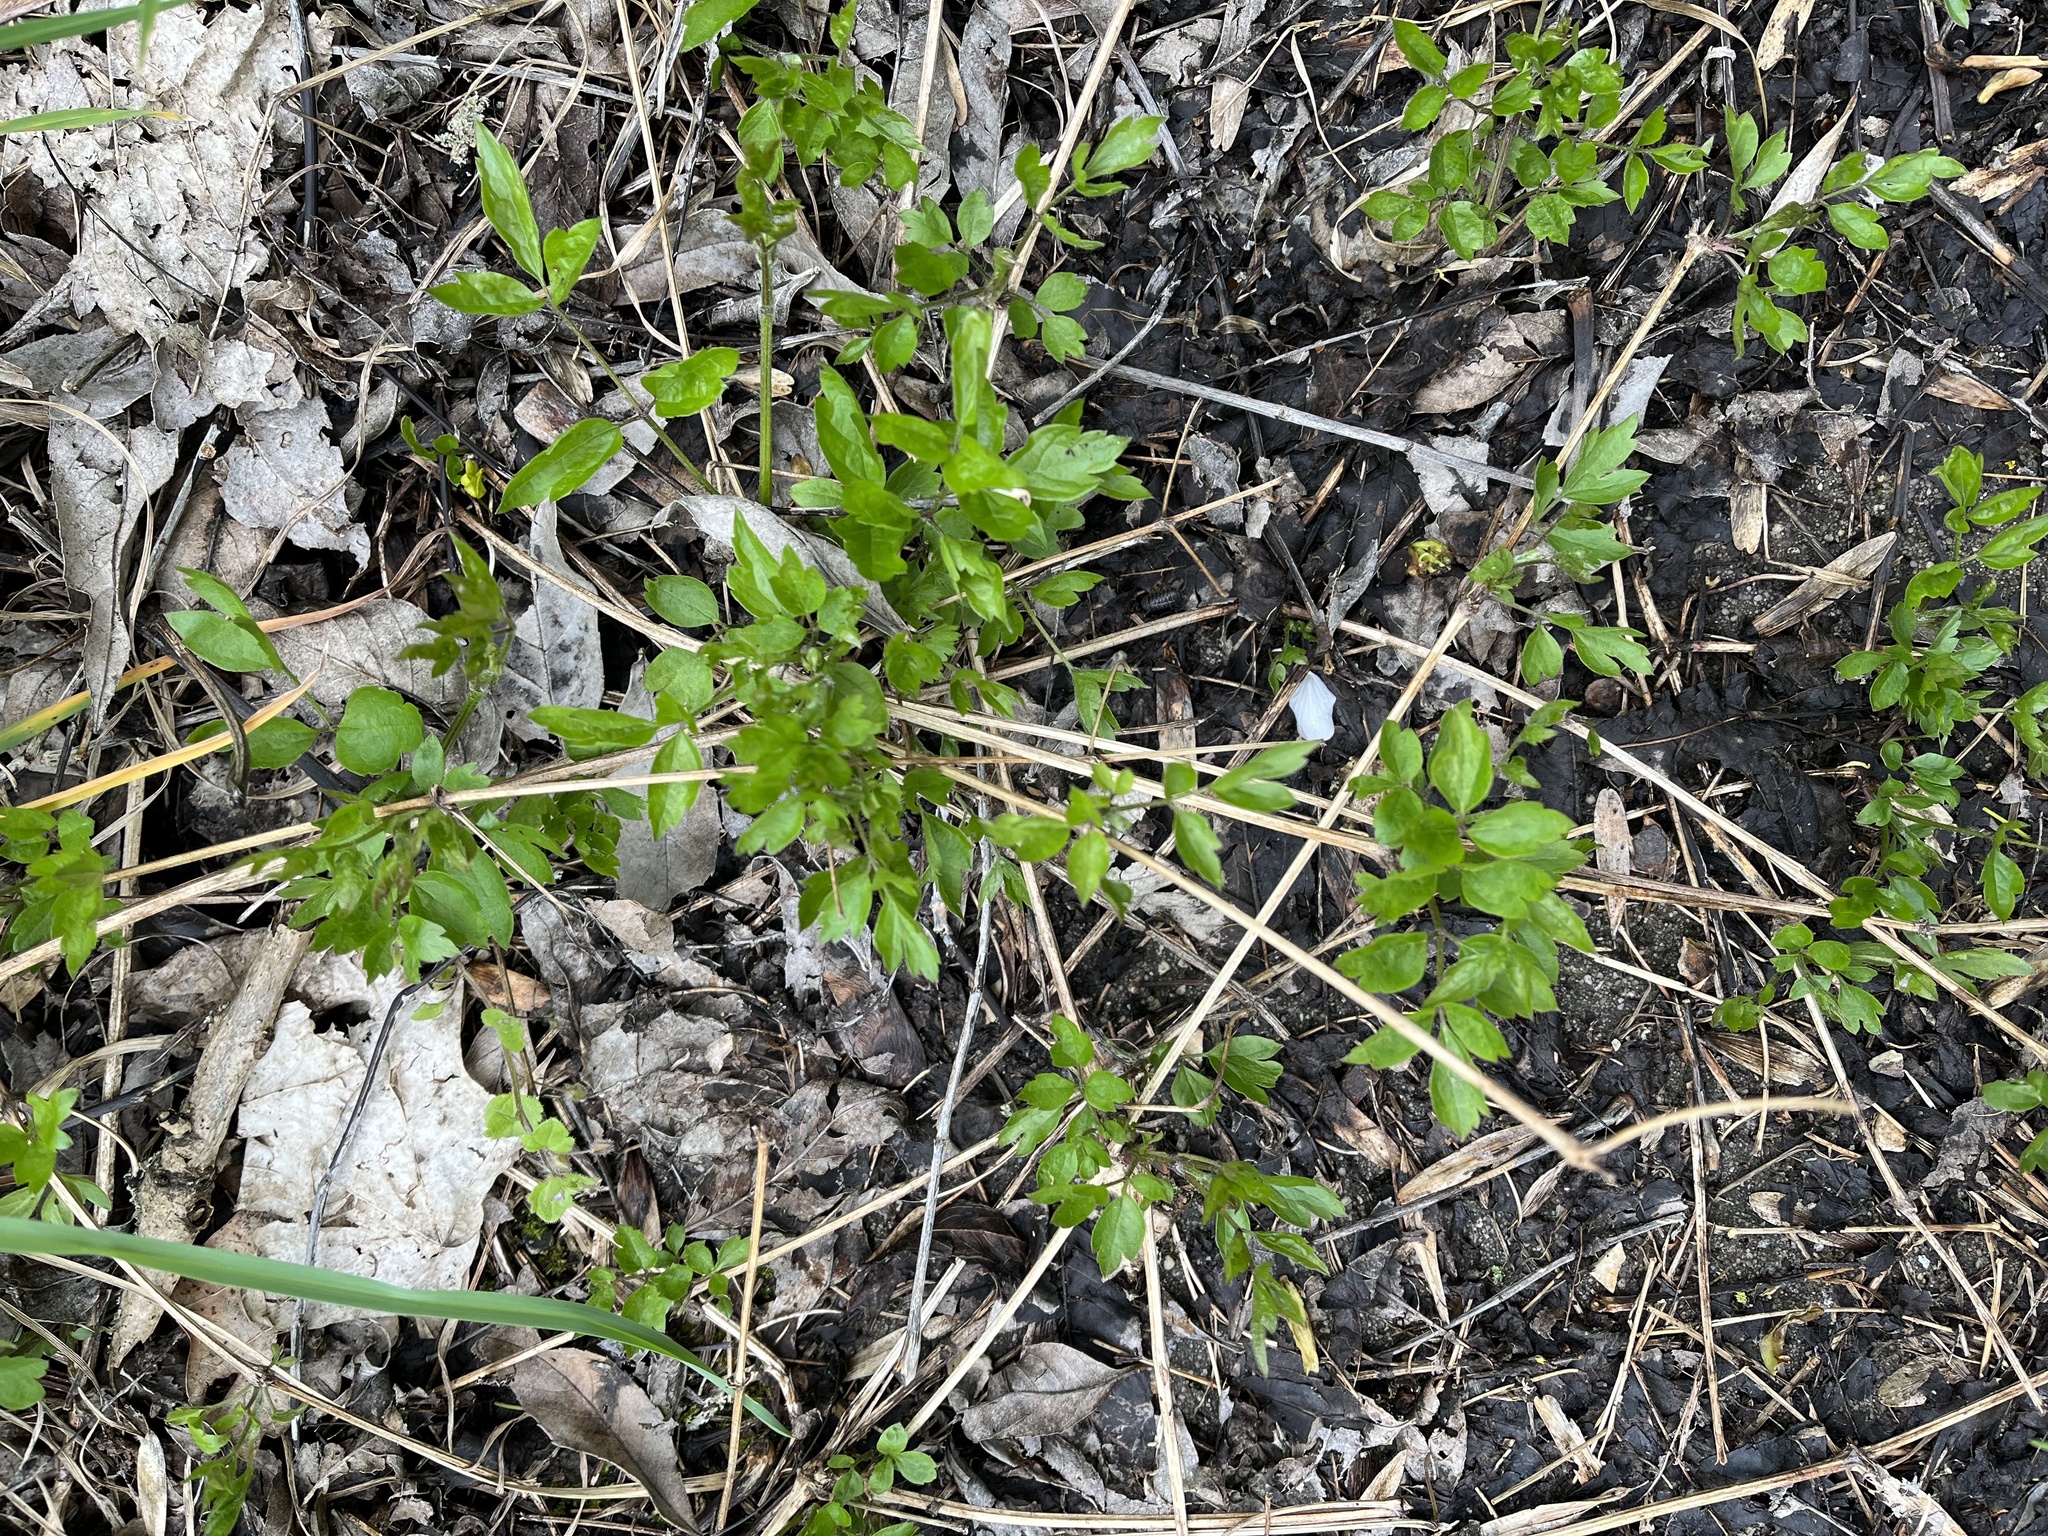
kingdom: Plantae
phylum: Tracheophyta
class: Magnoliopsida
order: Ranunculales
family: Ranunculaceae
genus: Clematis
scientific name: Clematis vitalba
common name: Evergreen clematis
